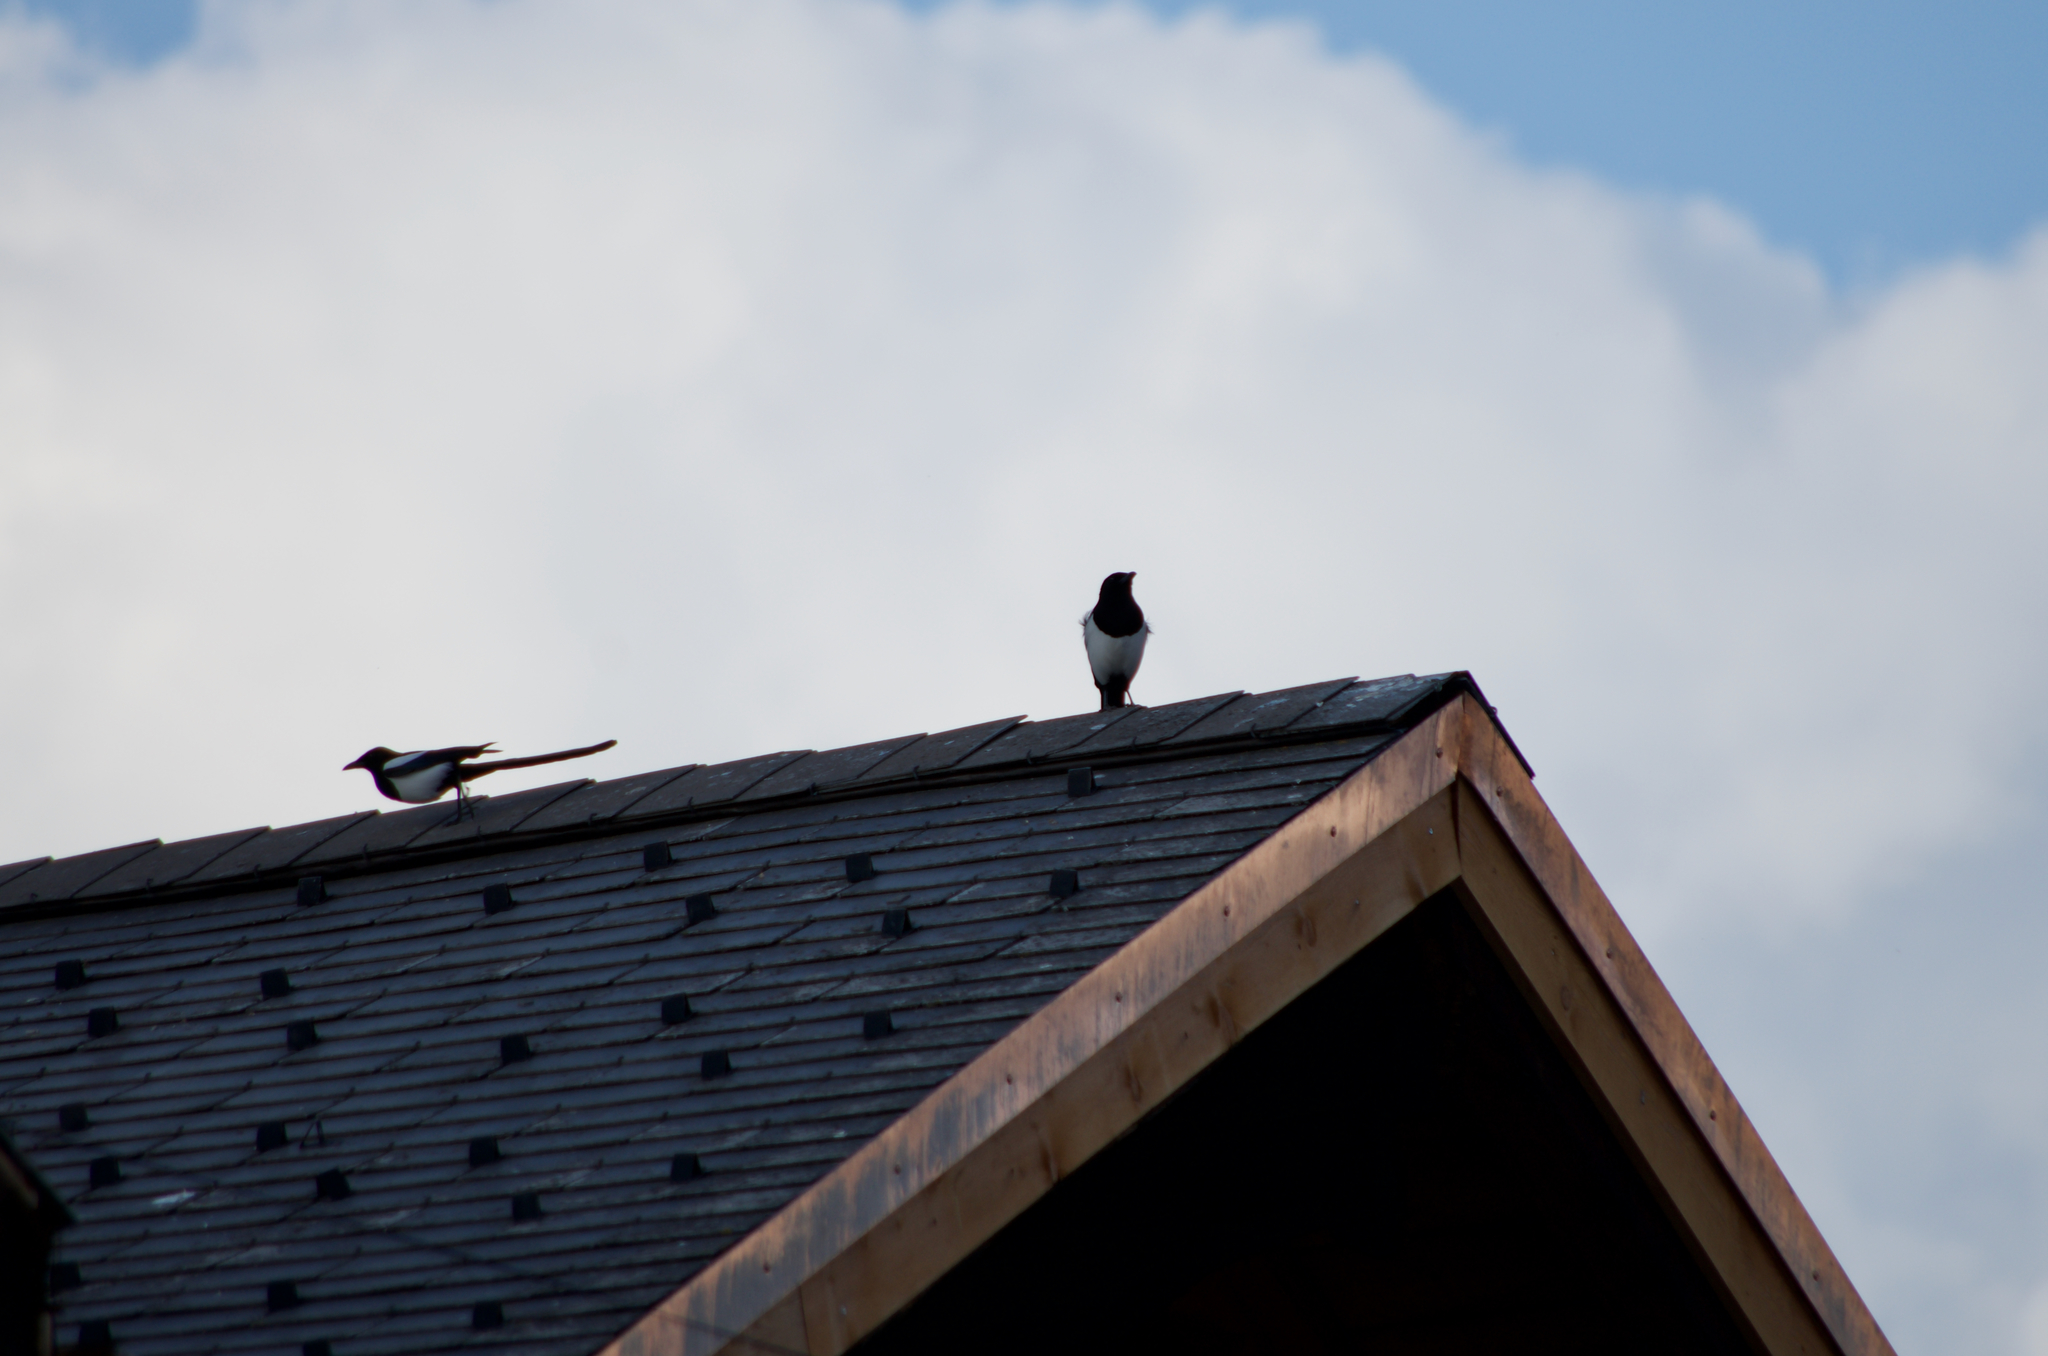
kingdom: Animalia
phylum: Chordata
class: Aves
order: Passeriformes
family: Corvidae
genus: Pica
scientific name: Pica pica
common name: Eurasian magpie
